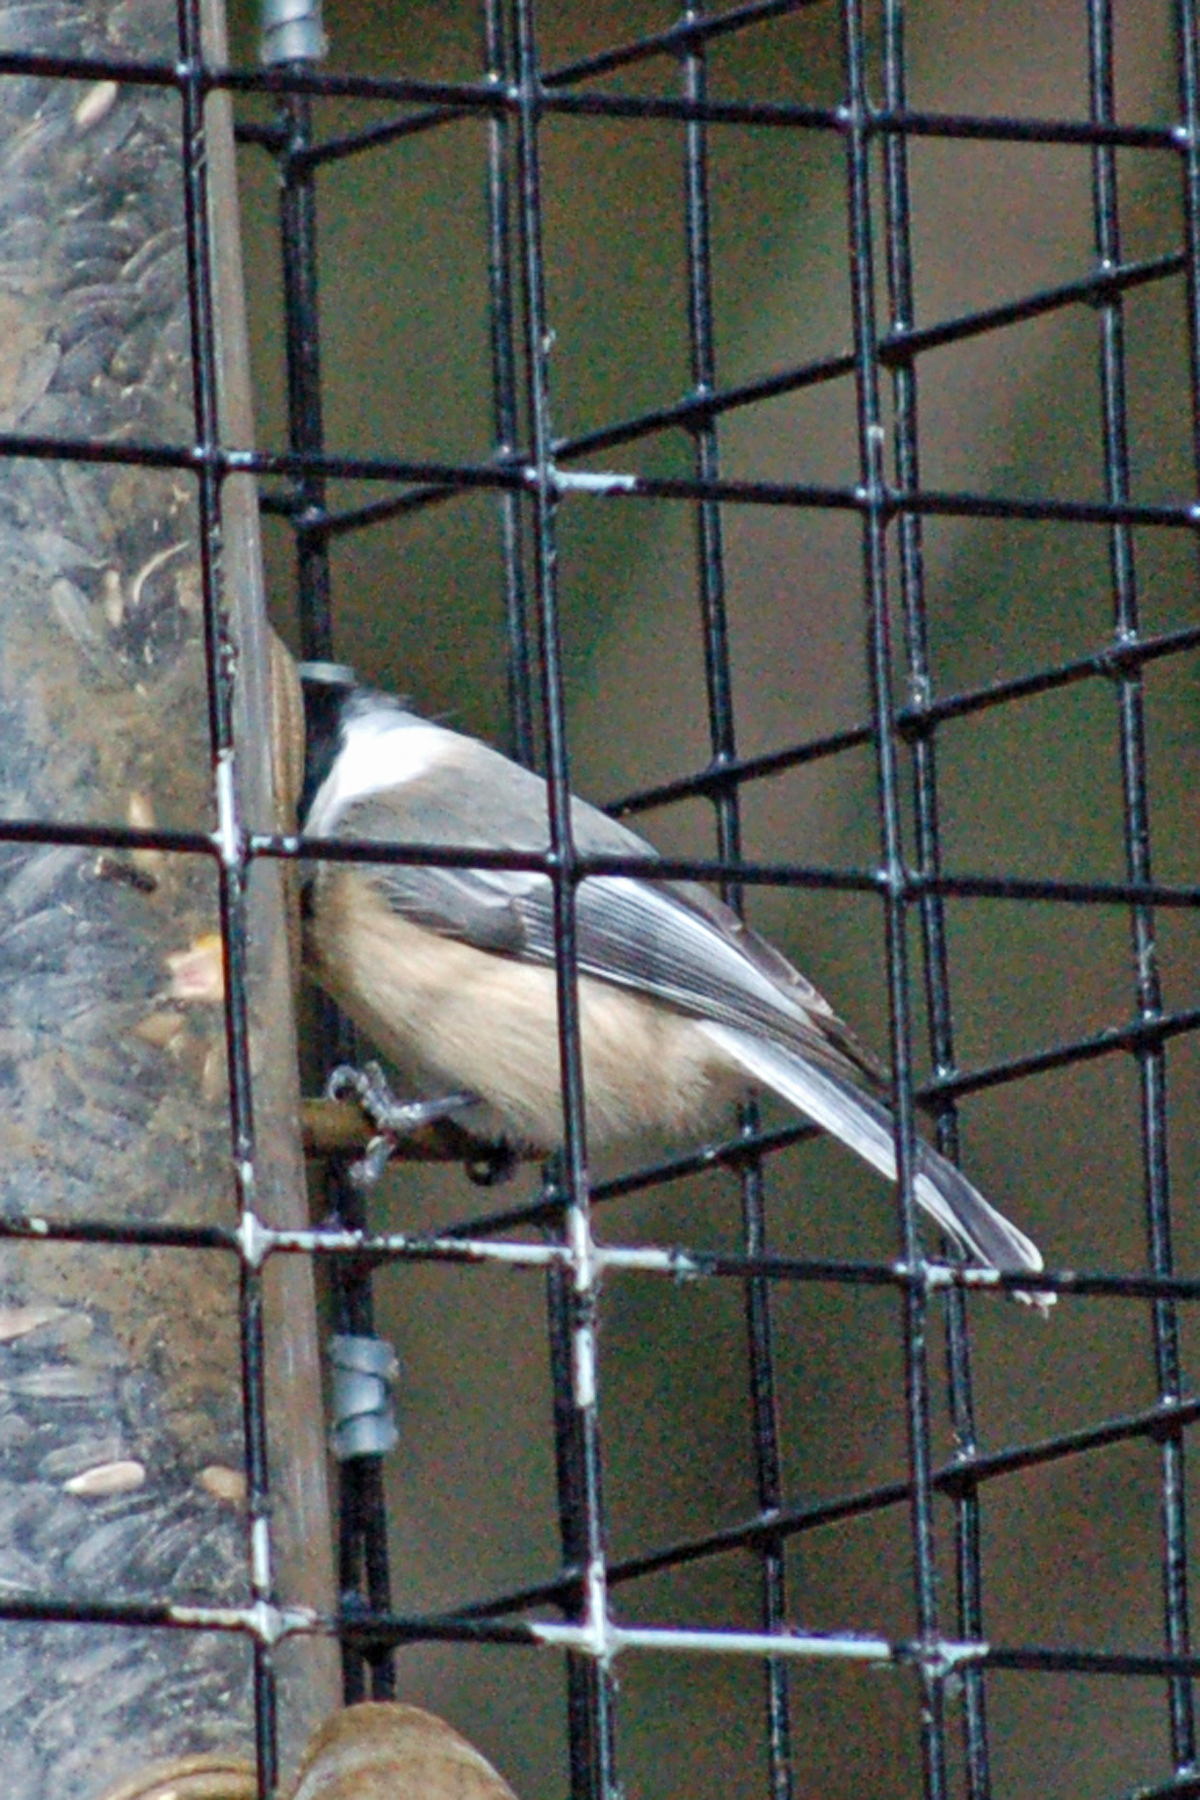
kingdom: Animalia
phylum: Chordata
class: Aves
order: Passeriformes
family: Paridae
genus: Poecile
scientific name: Poecile atricapillus
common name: Black-capped chickadee
